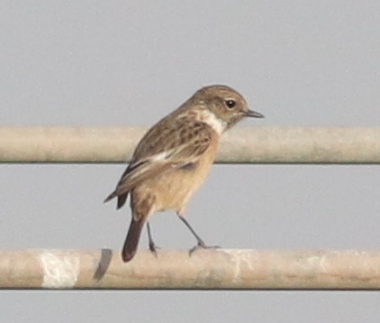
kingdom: Animalia
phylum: Chordata
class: Aves
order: Passeriformes
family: Muscicapidae
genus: Saxicola
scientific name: Saxicola rubicola
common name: European stonechat
